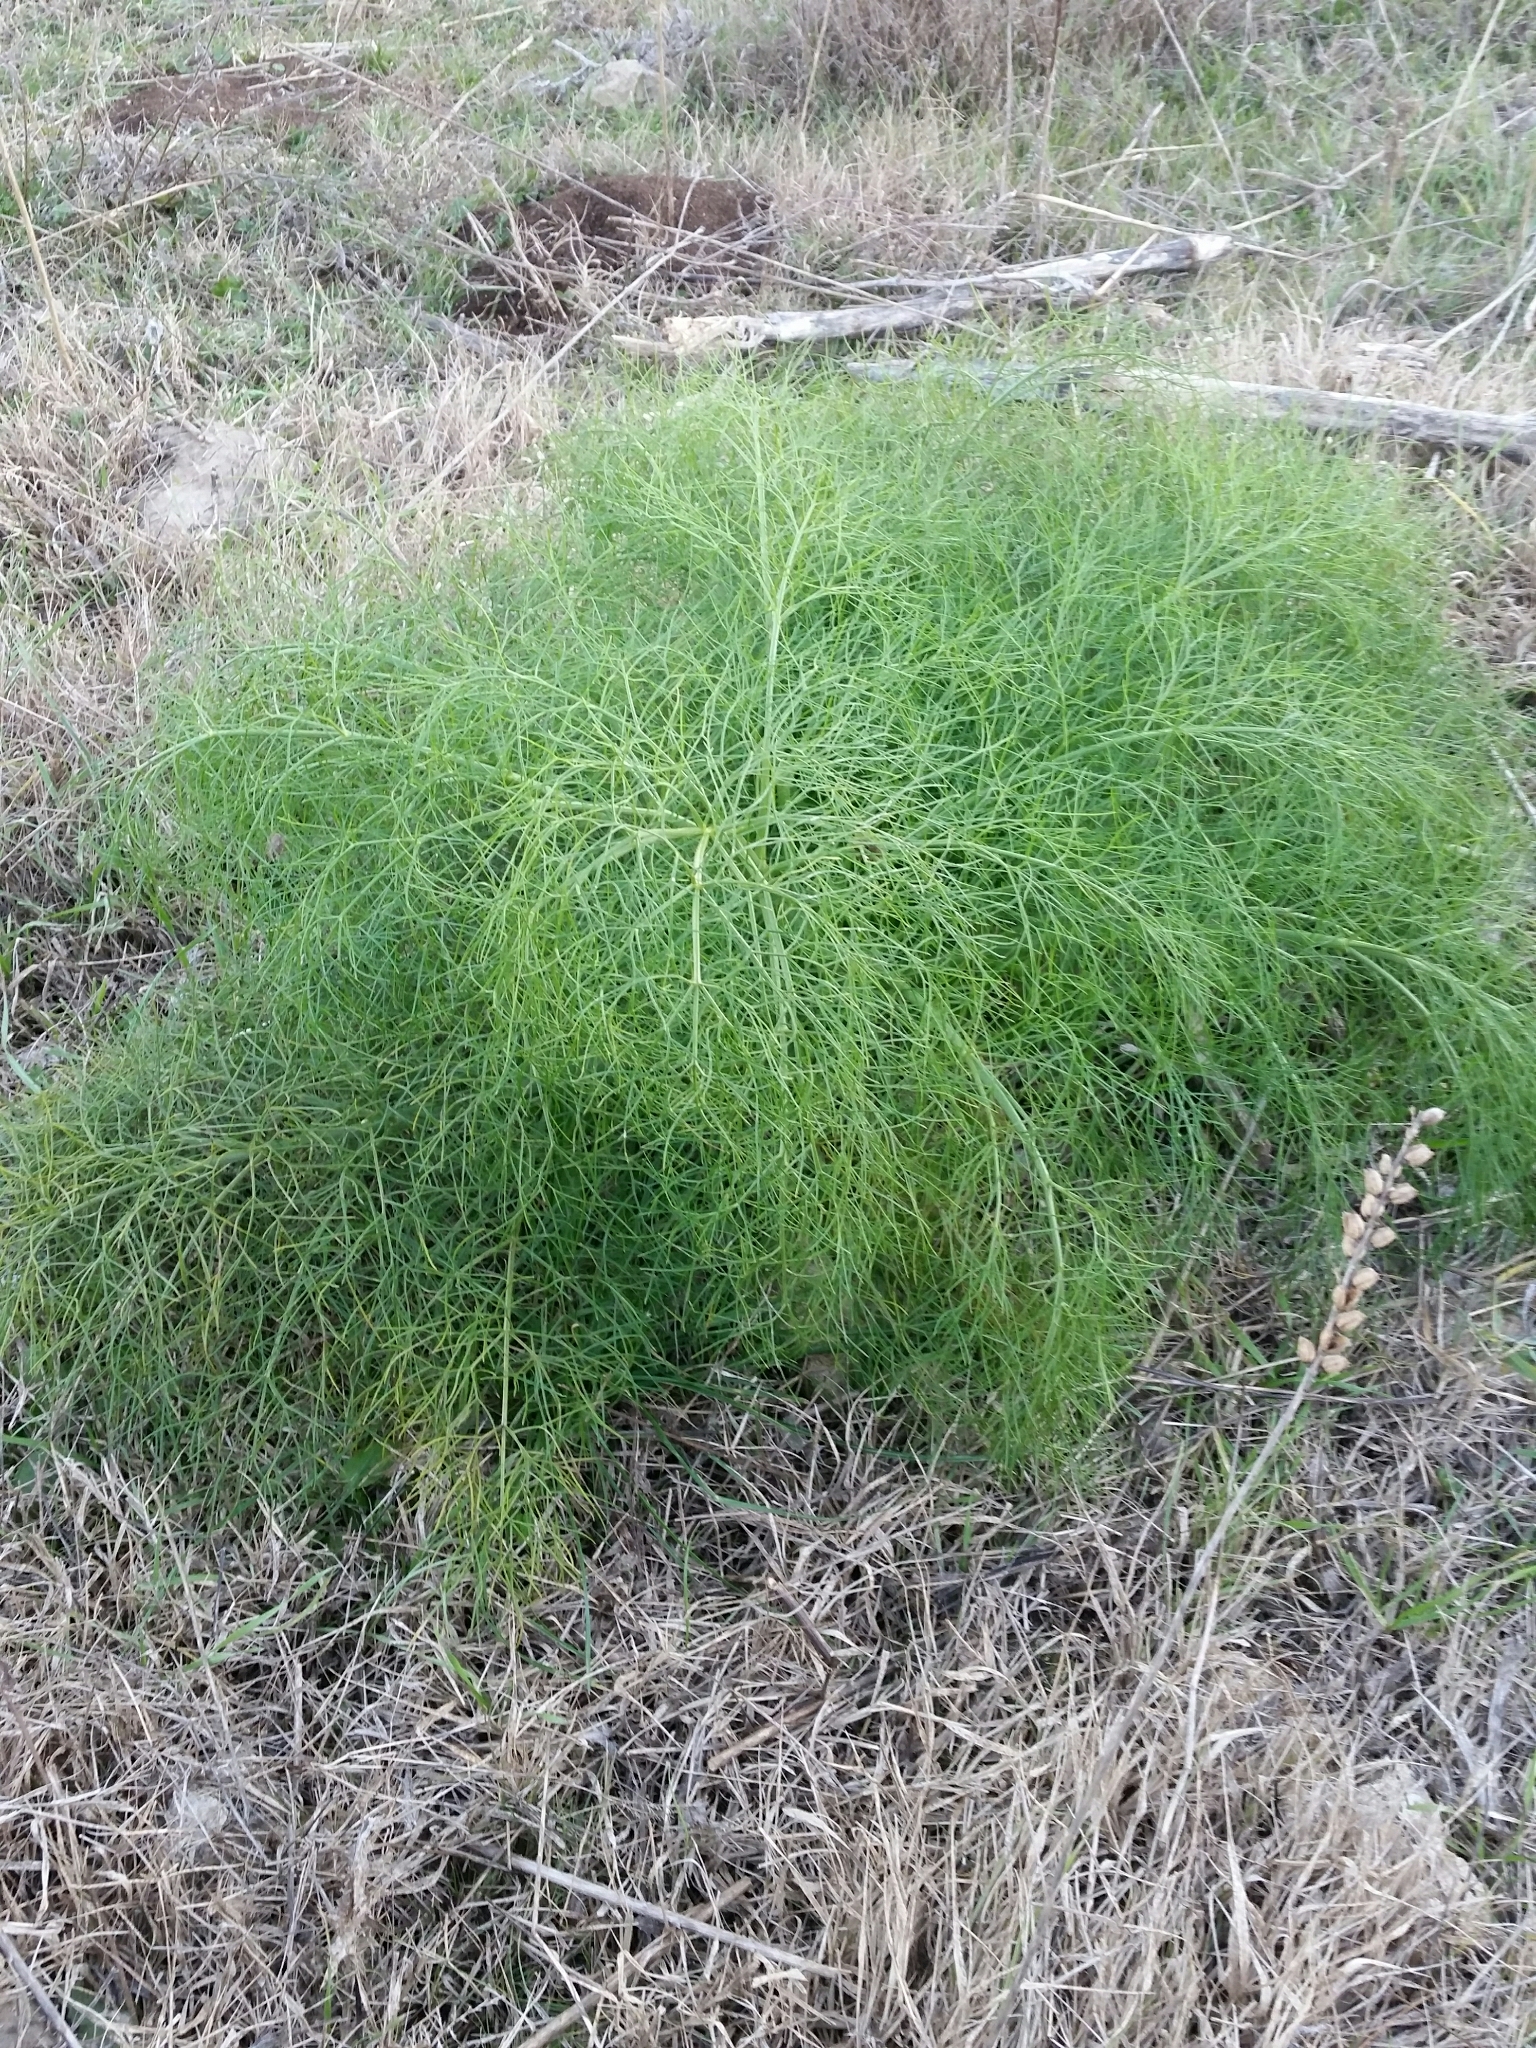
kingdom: Plantae
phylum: Tracheophyta
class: Magnoliopsida
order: Apiales
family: Apiaceae
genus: Ferula
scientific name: Ferula communis
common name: Giant fennel
